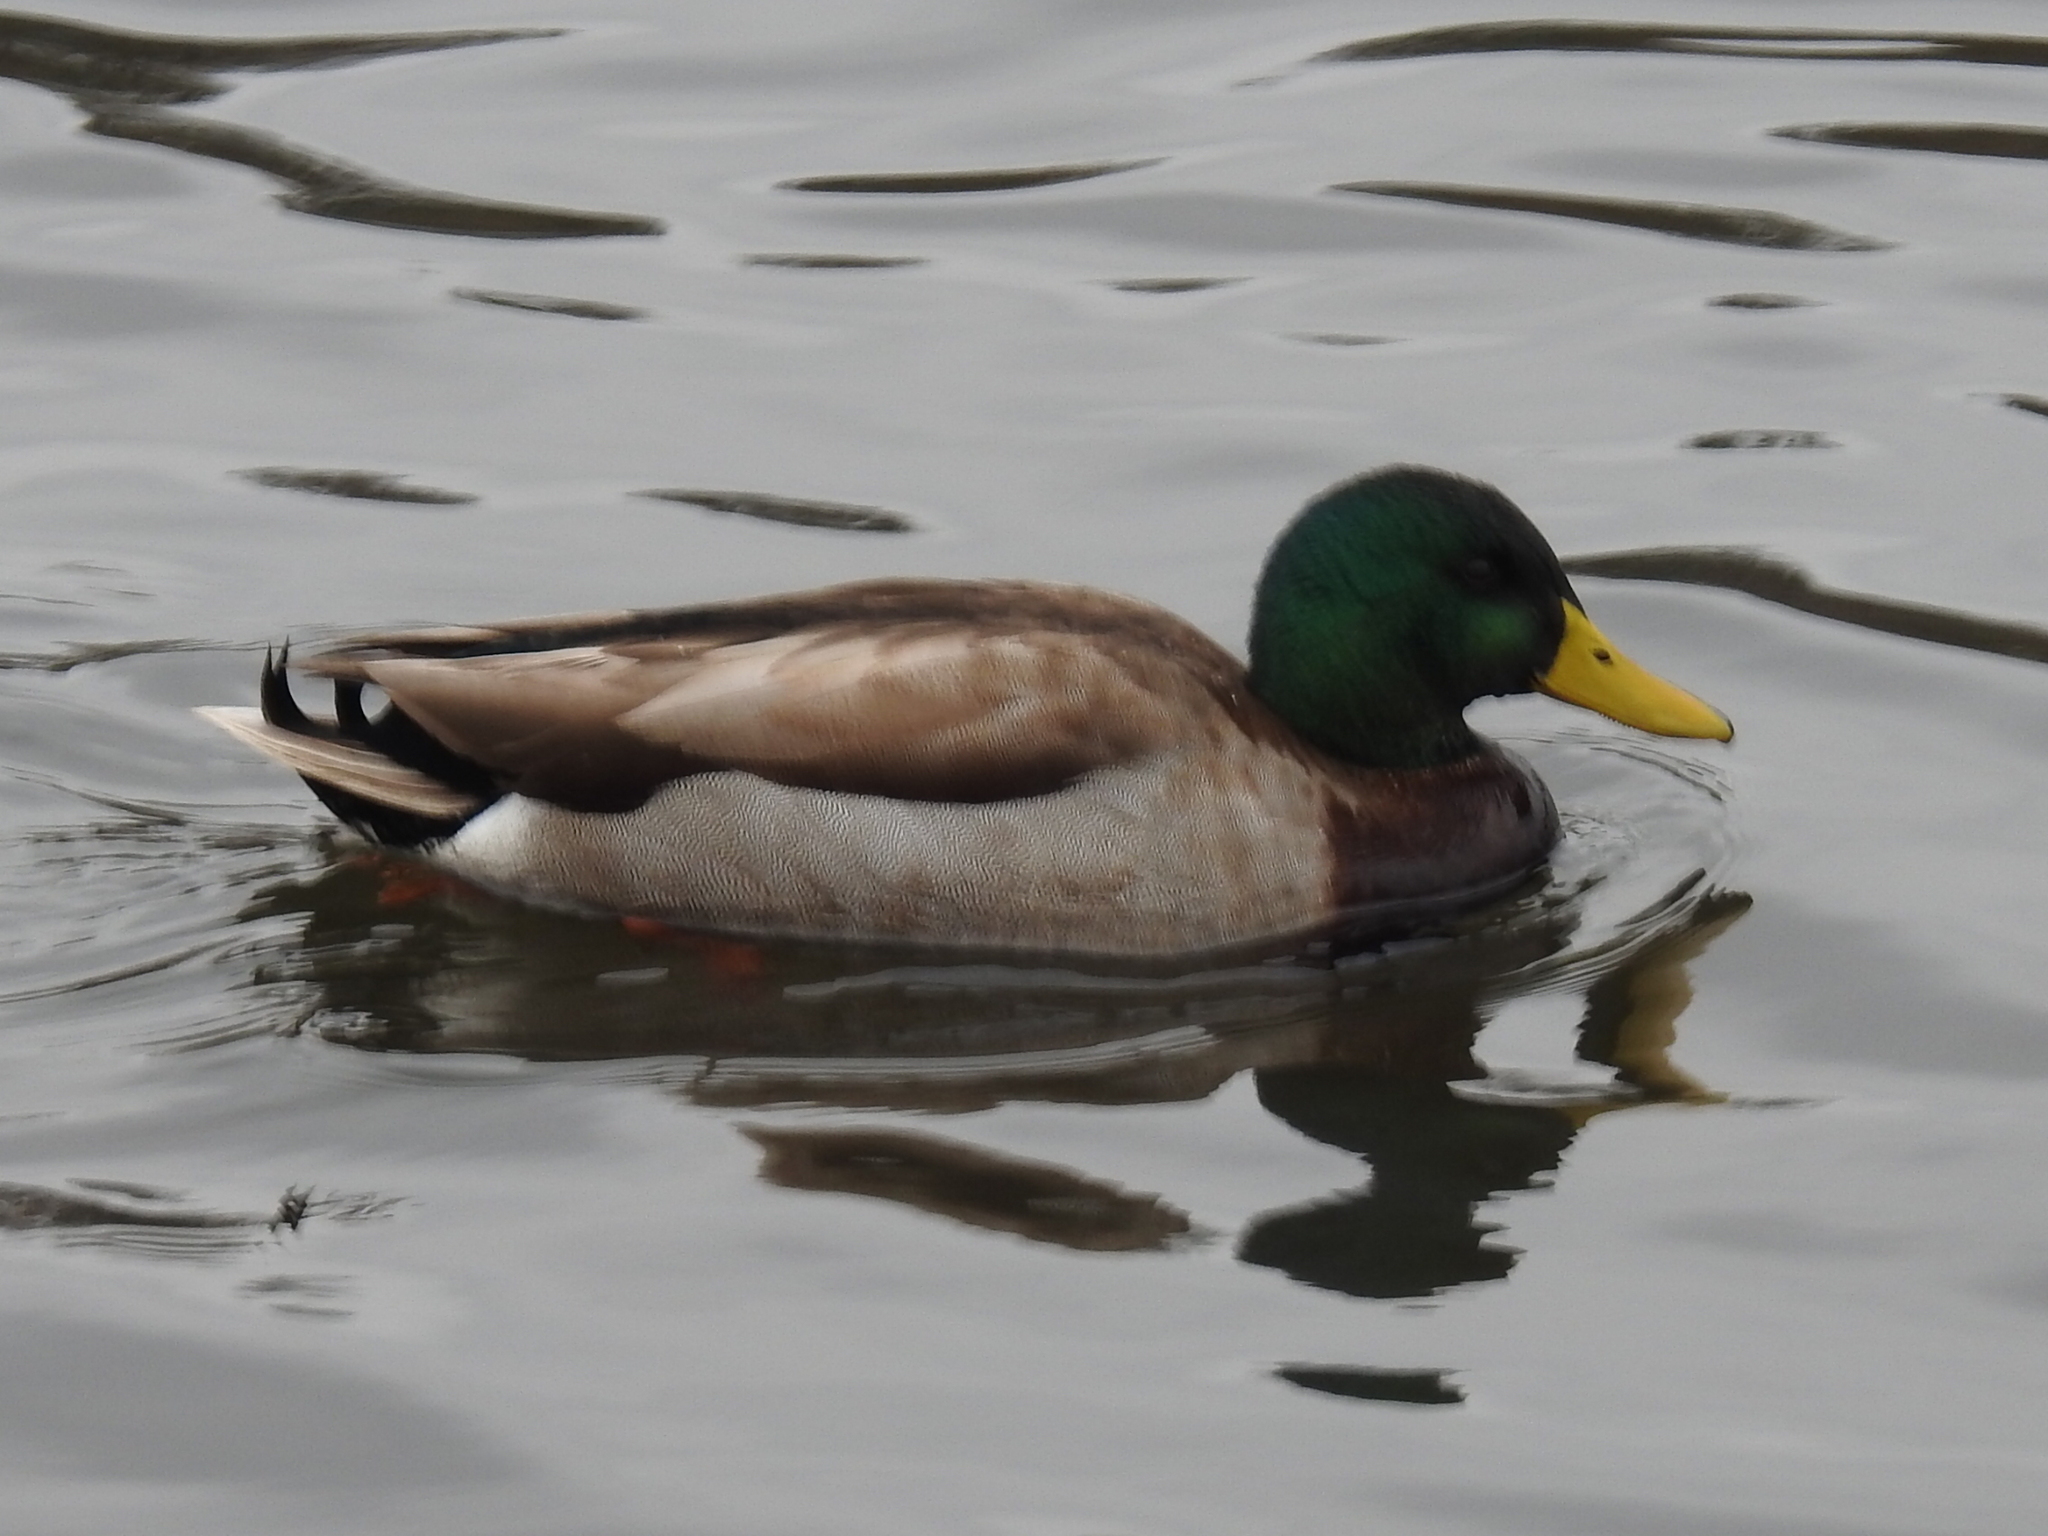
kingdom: Animalia
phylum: Chordata
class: Aves
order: Anseriformes
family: Anatidae
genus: Anas
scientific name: Anas platyrhynchos
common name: Mallard
